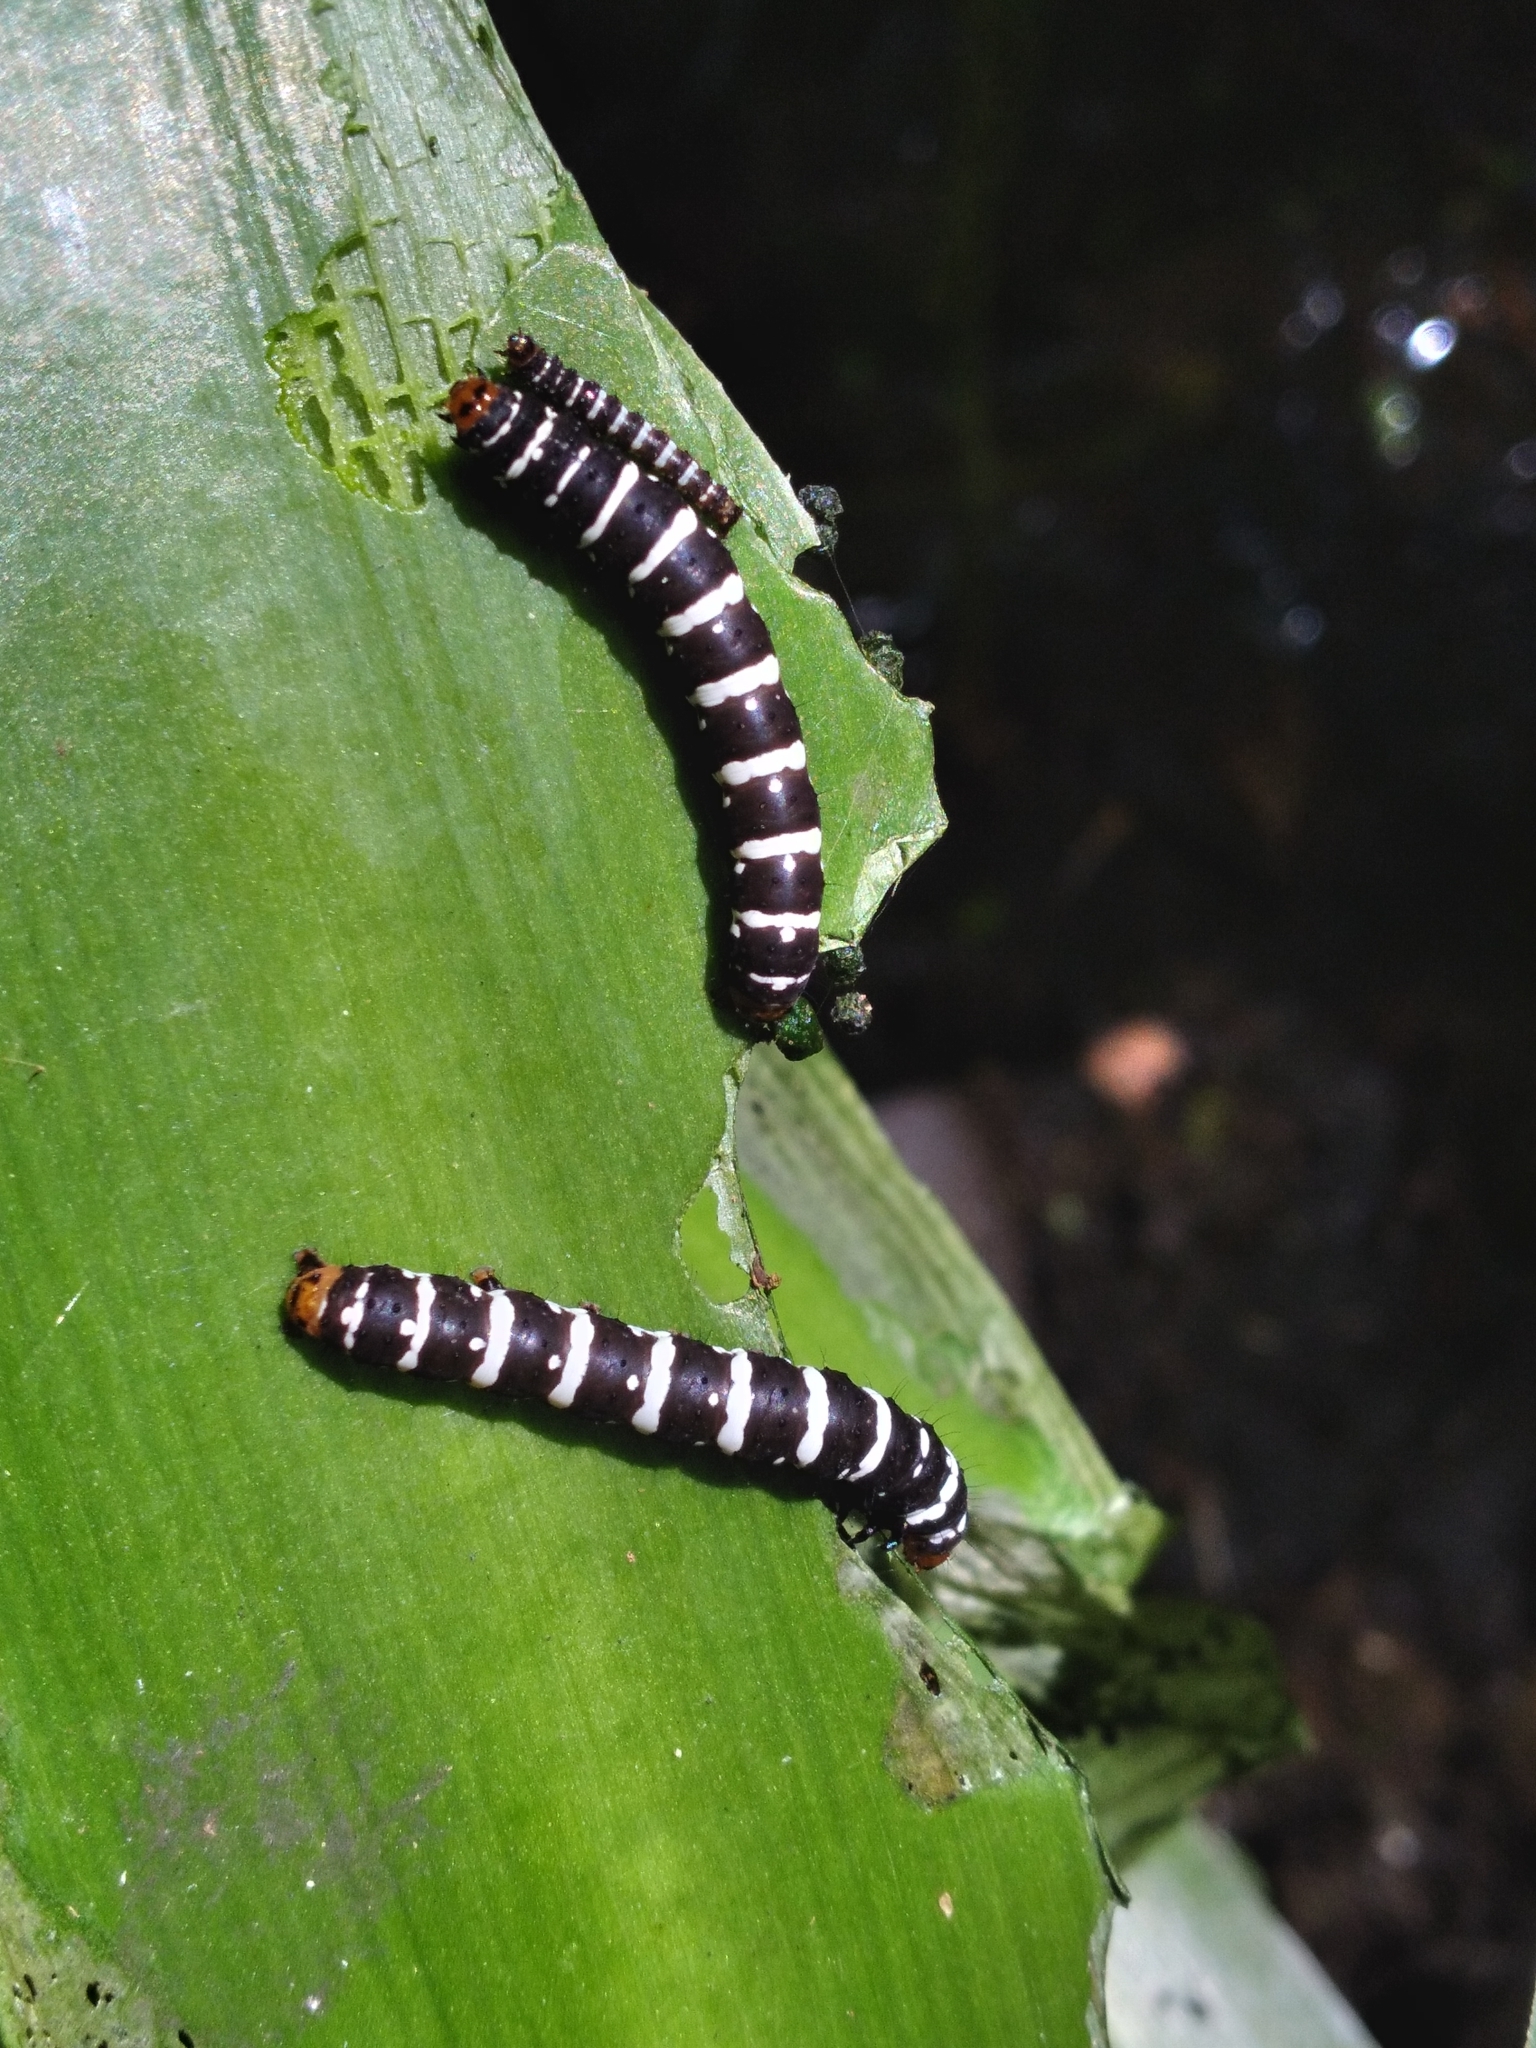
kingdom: Animalia
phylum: Arthropoda
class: Insecta
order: Lepidoptera
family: Noctuidae
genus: Xanthopastis
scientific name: Xanthopastis regnatrix
